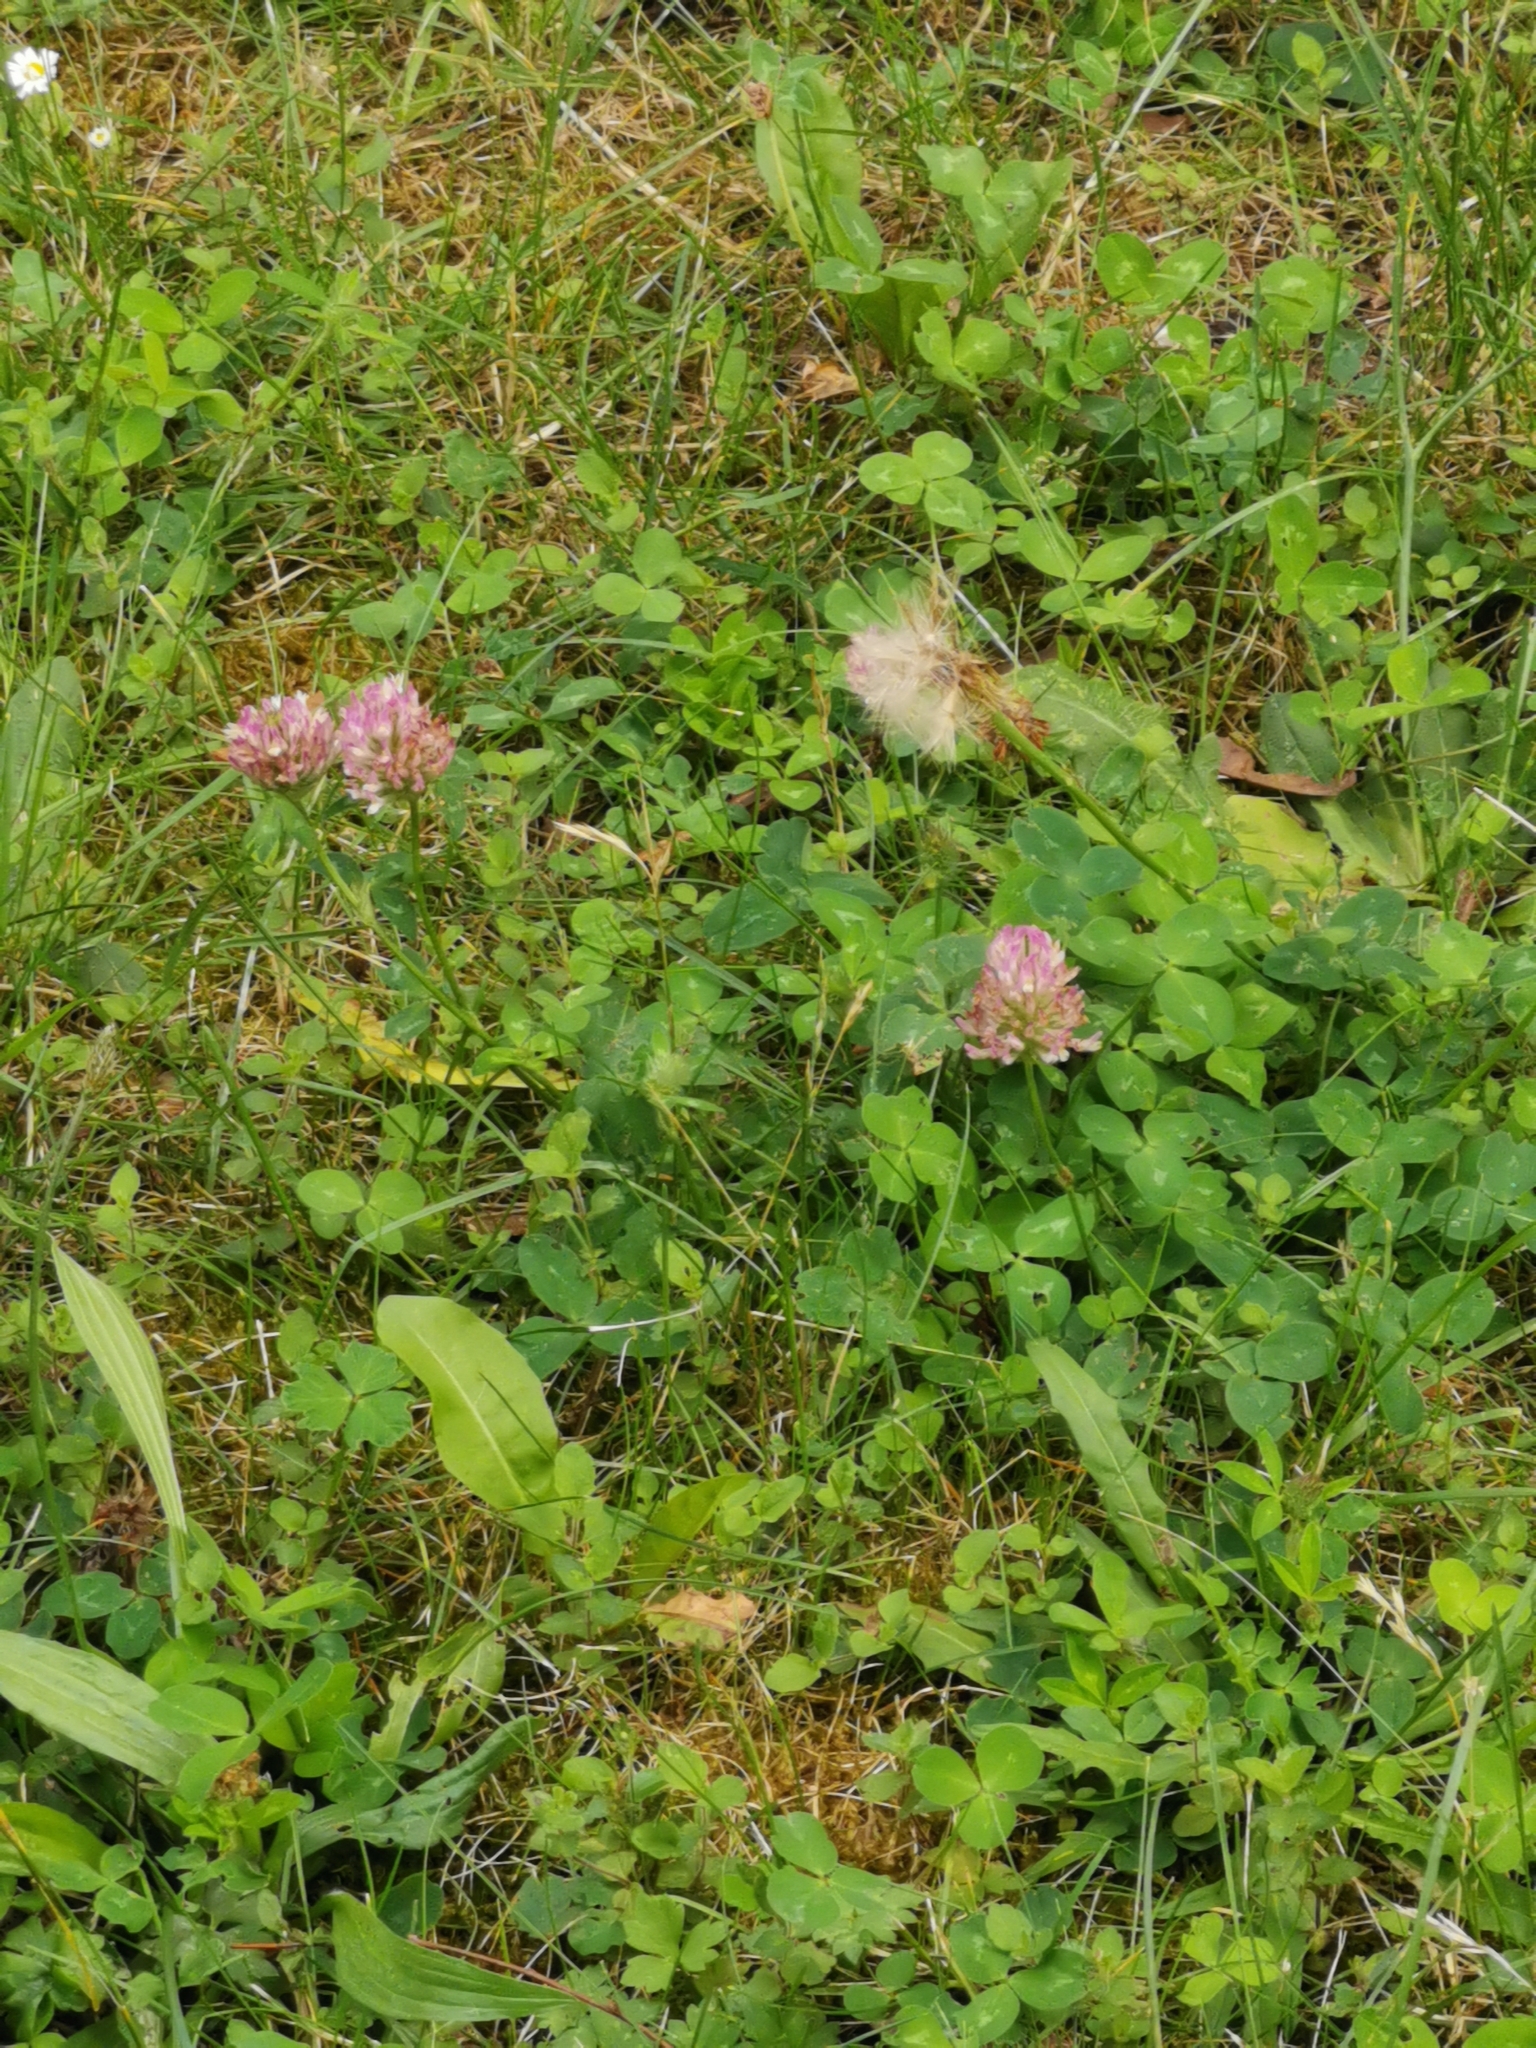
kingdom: Plantae
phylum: Tracheophyta
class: Magnoliopsida
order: Fabales
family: Fabaceae
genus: Trifolium
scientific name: Trifolium pratense
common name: Red clover
